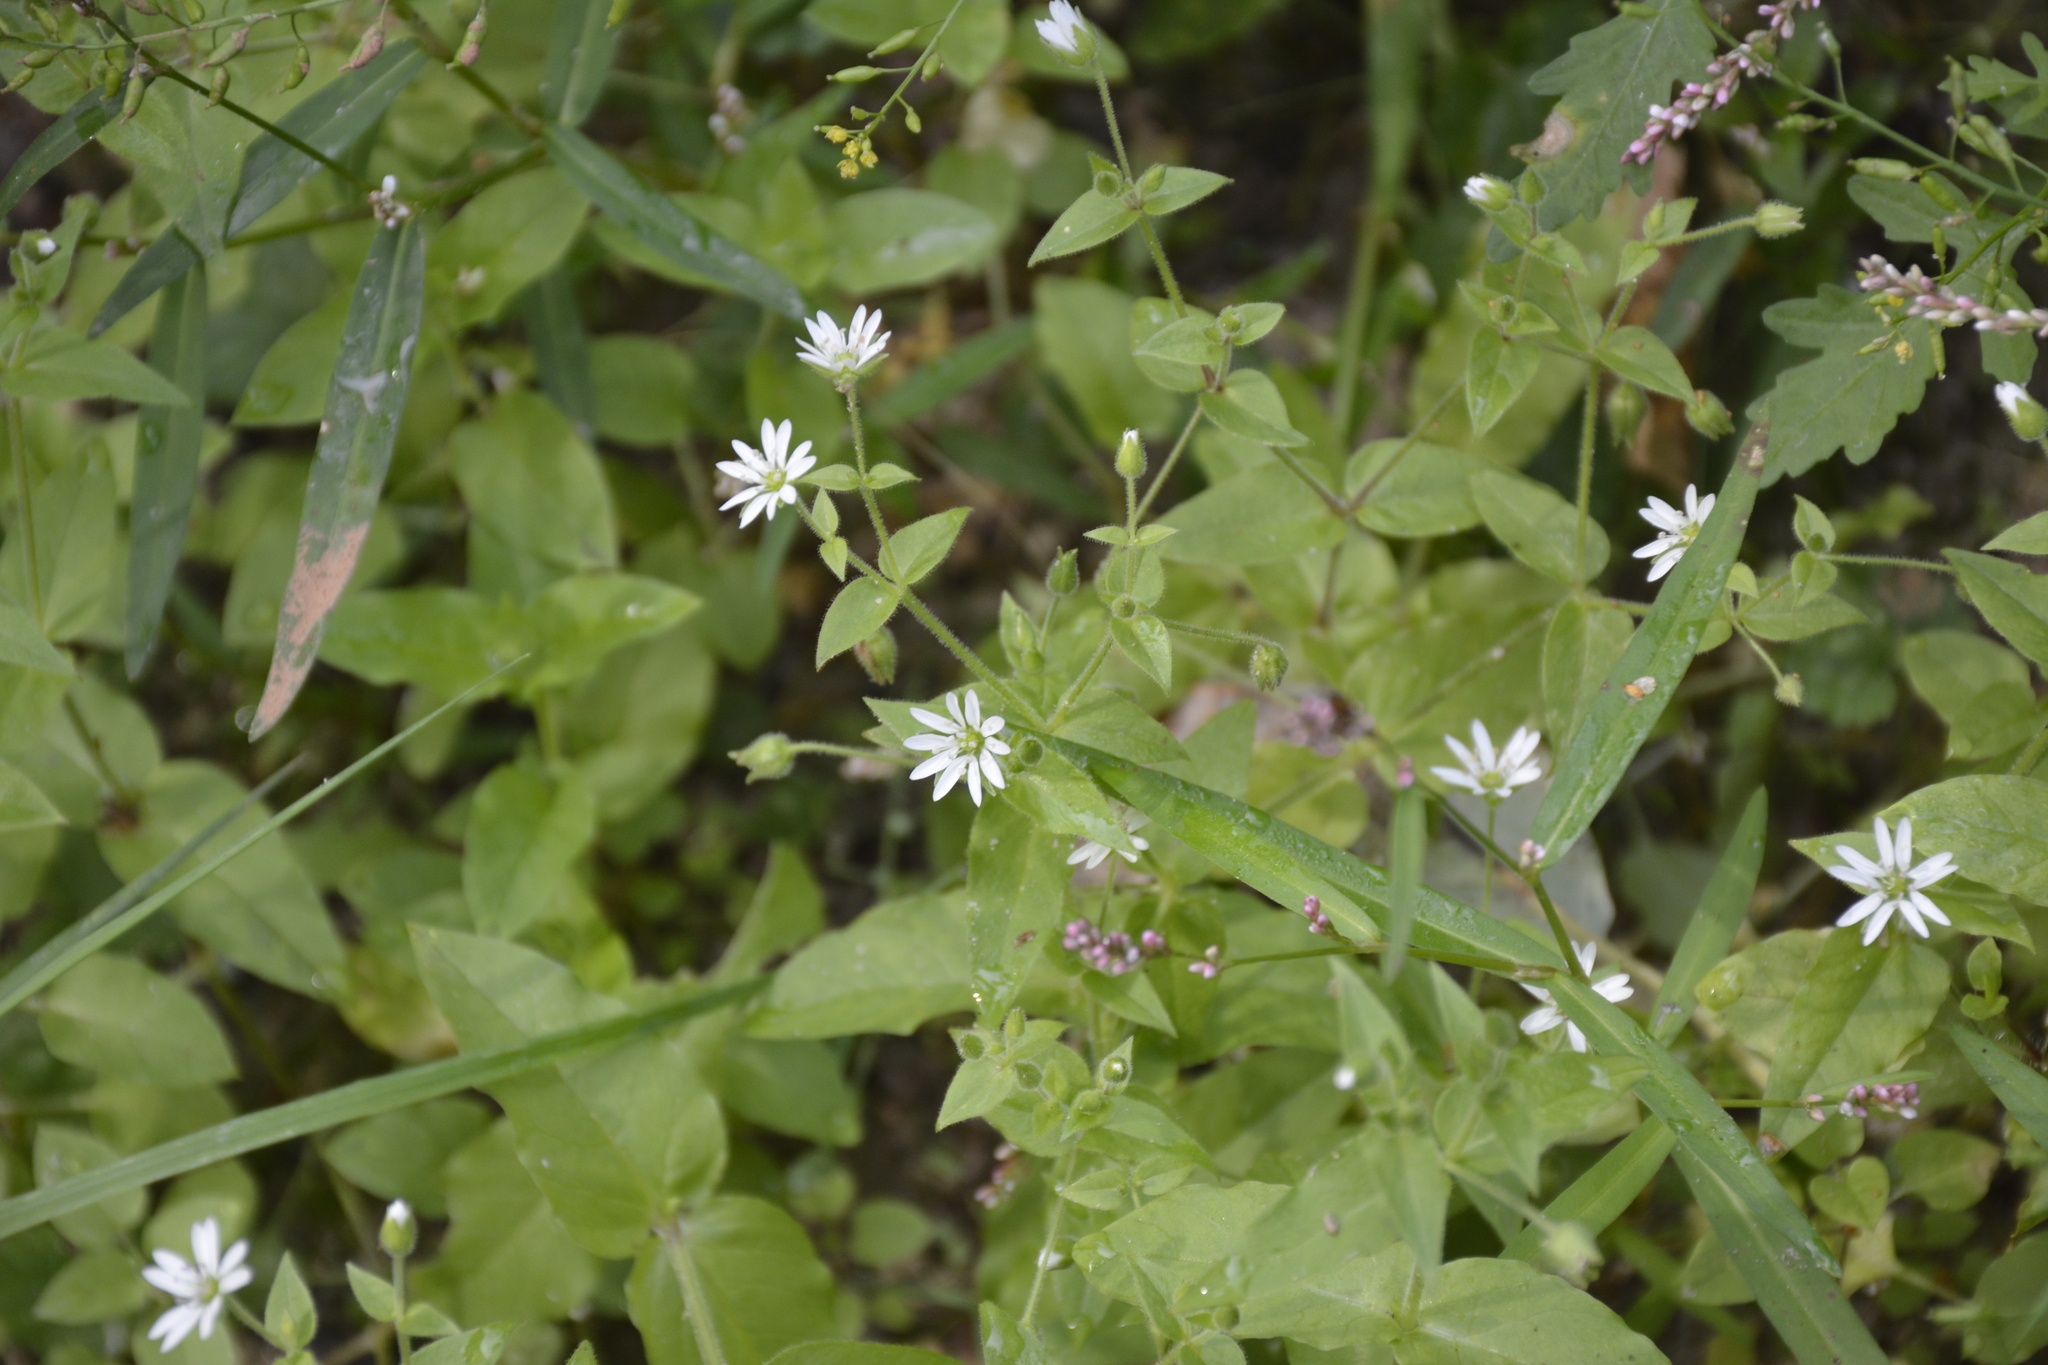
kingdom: Plantae
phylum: Tracheophyta
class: Magnoliopsida
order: Caryophyllales
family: Caryophyllaceae
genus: Stellaria
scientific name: Stellaria aquatica
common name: Water chickweed
